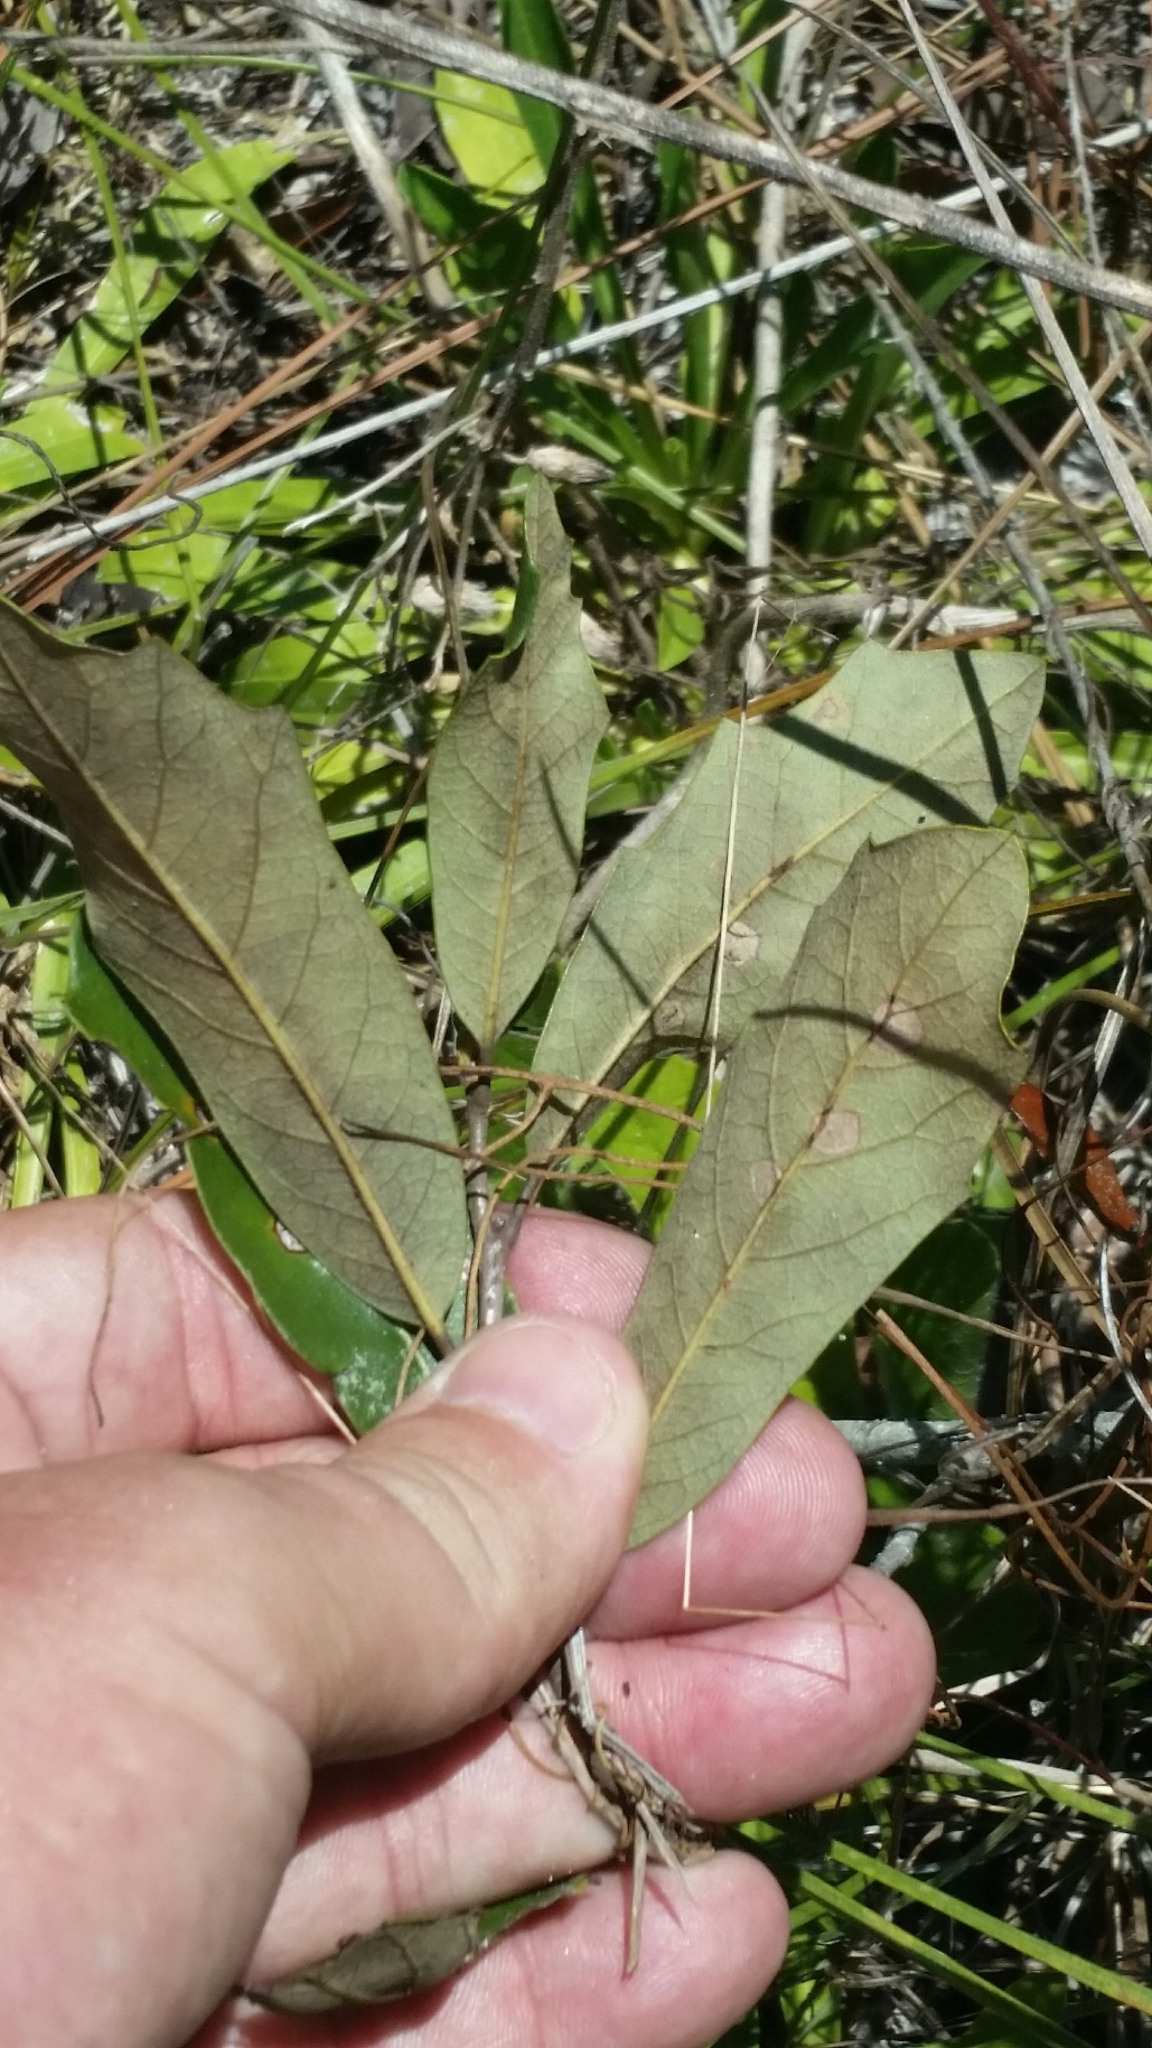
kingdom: Plantae
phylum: Tracheophyta
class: Magnoliopsida
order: Fagales
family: Fagaceae
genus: Quercus
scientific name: Quercus minima
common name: Dwarf live oak
